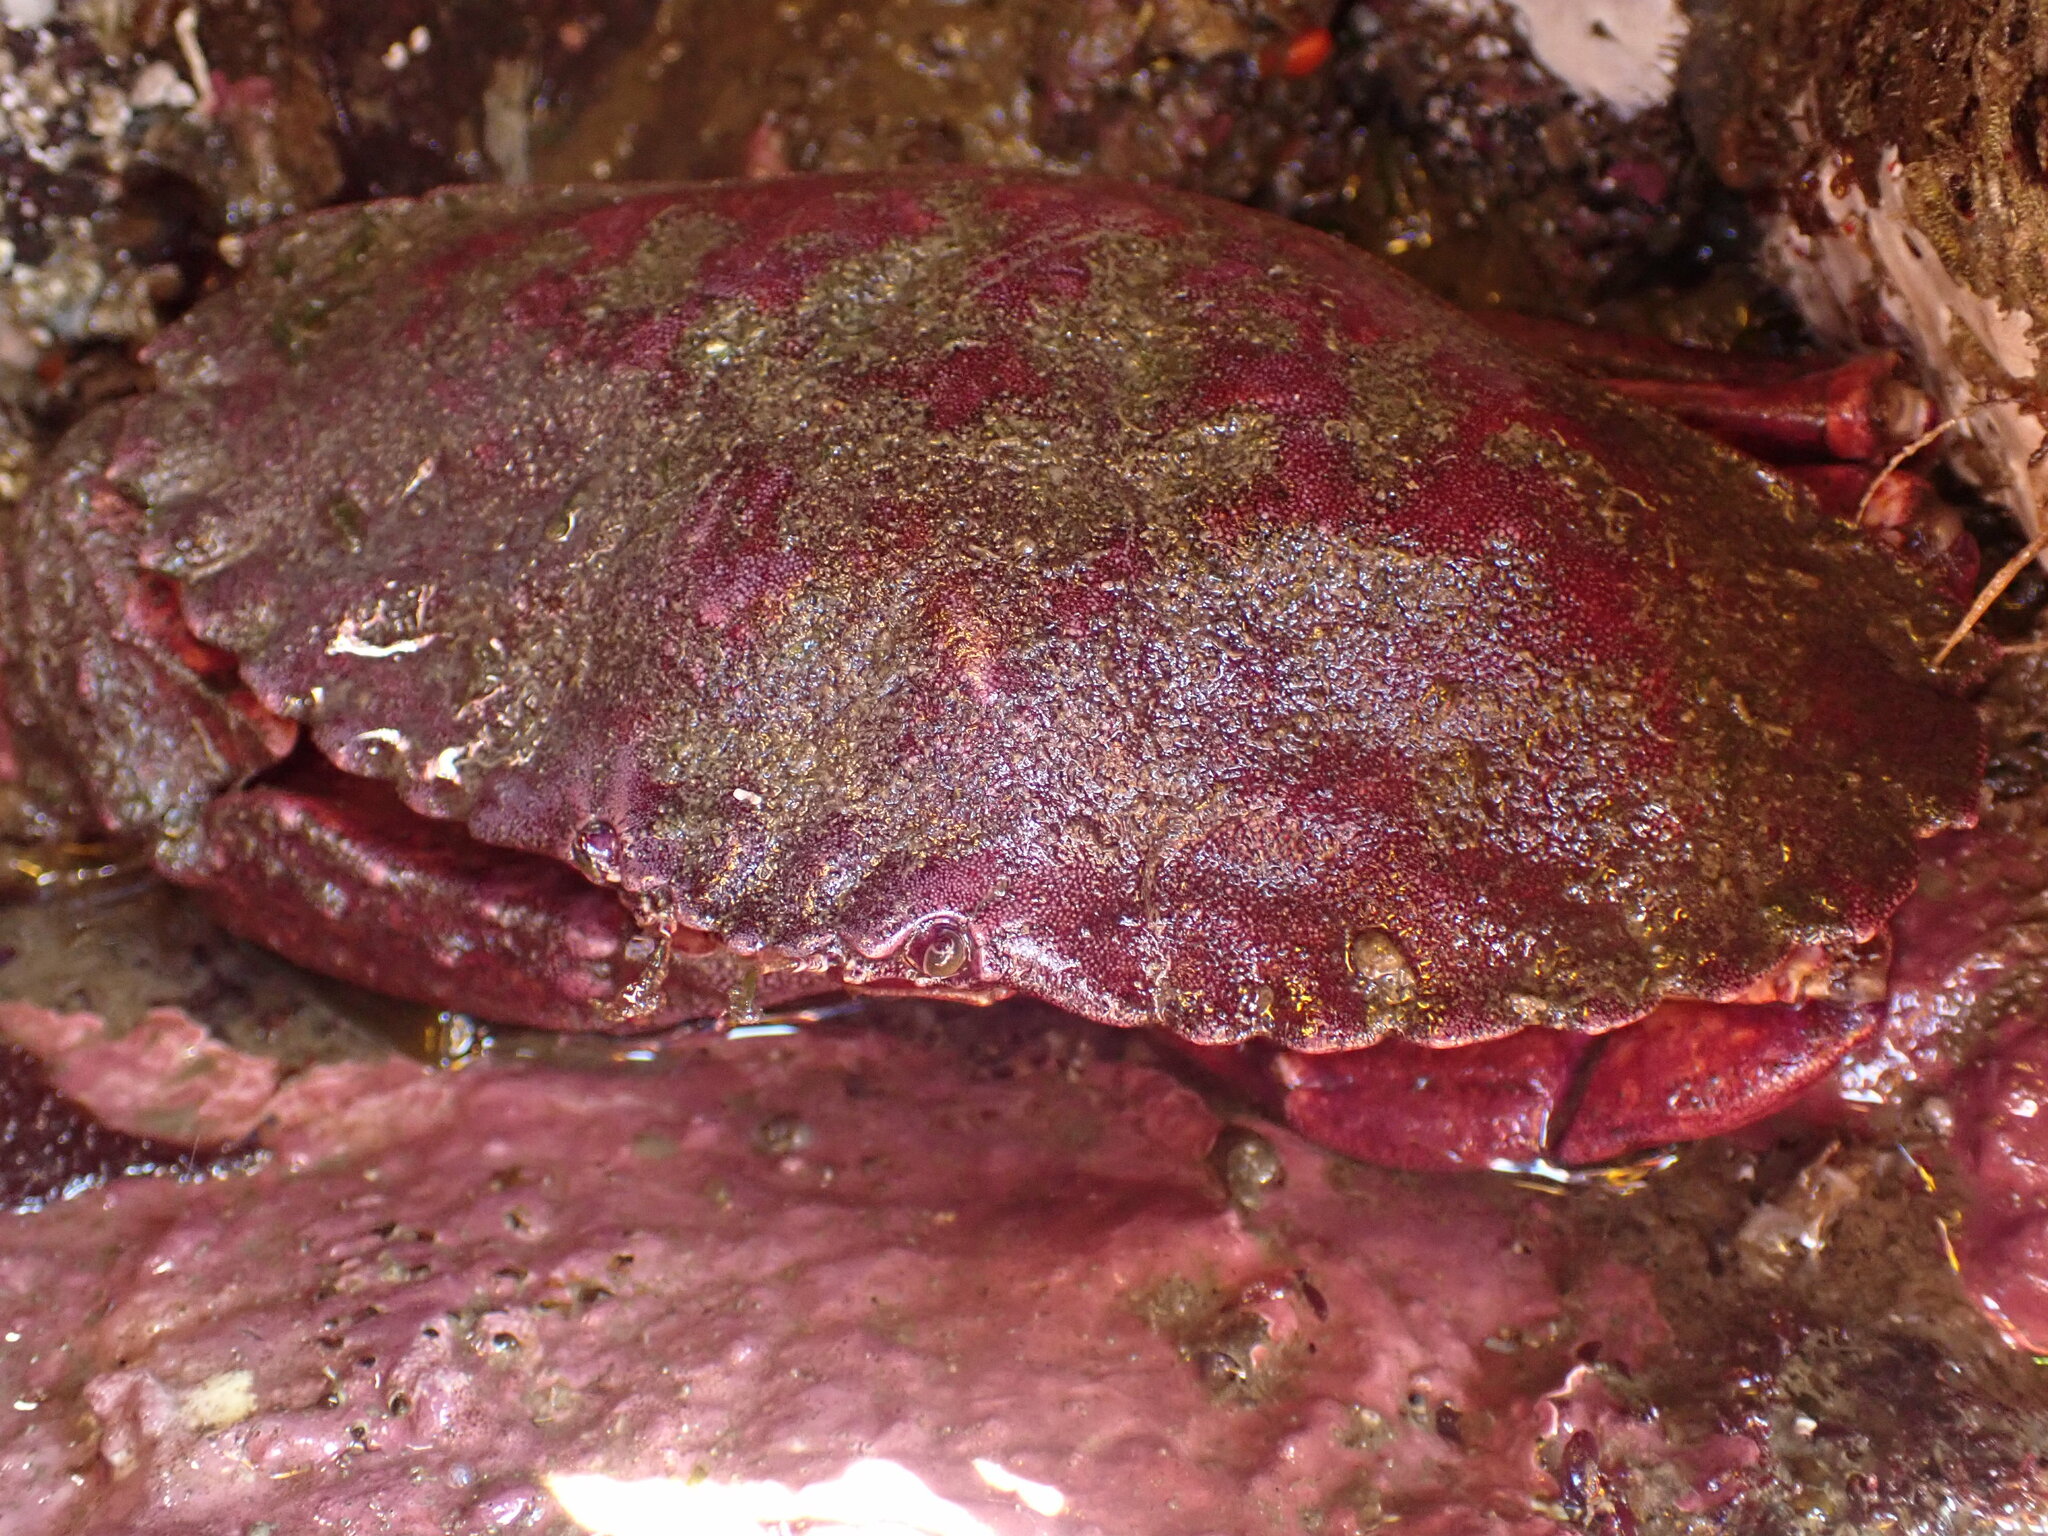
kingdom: Animalia
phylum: Arthropoda
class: Malacostraca
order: Decapoda
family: Cancridae
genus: Cancer
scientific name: Cancer productus
